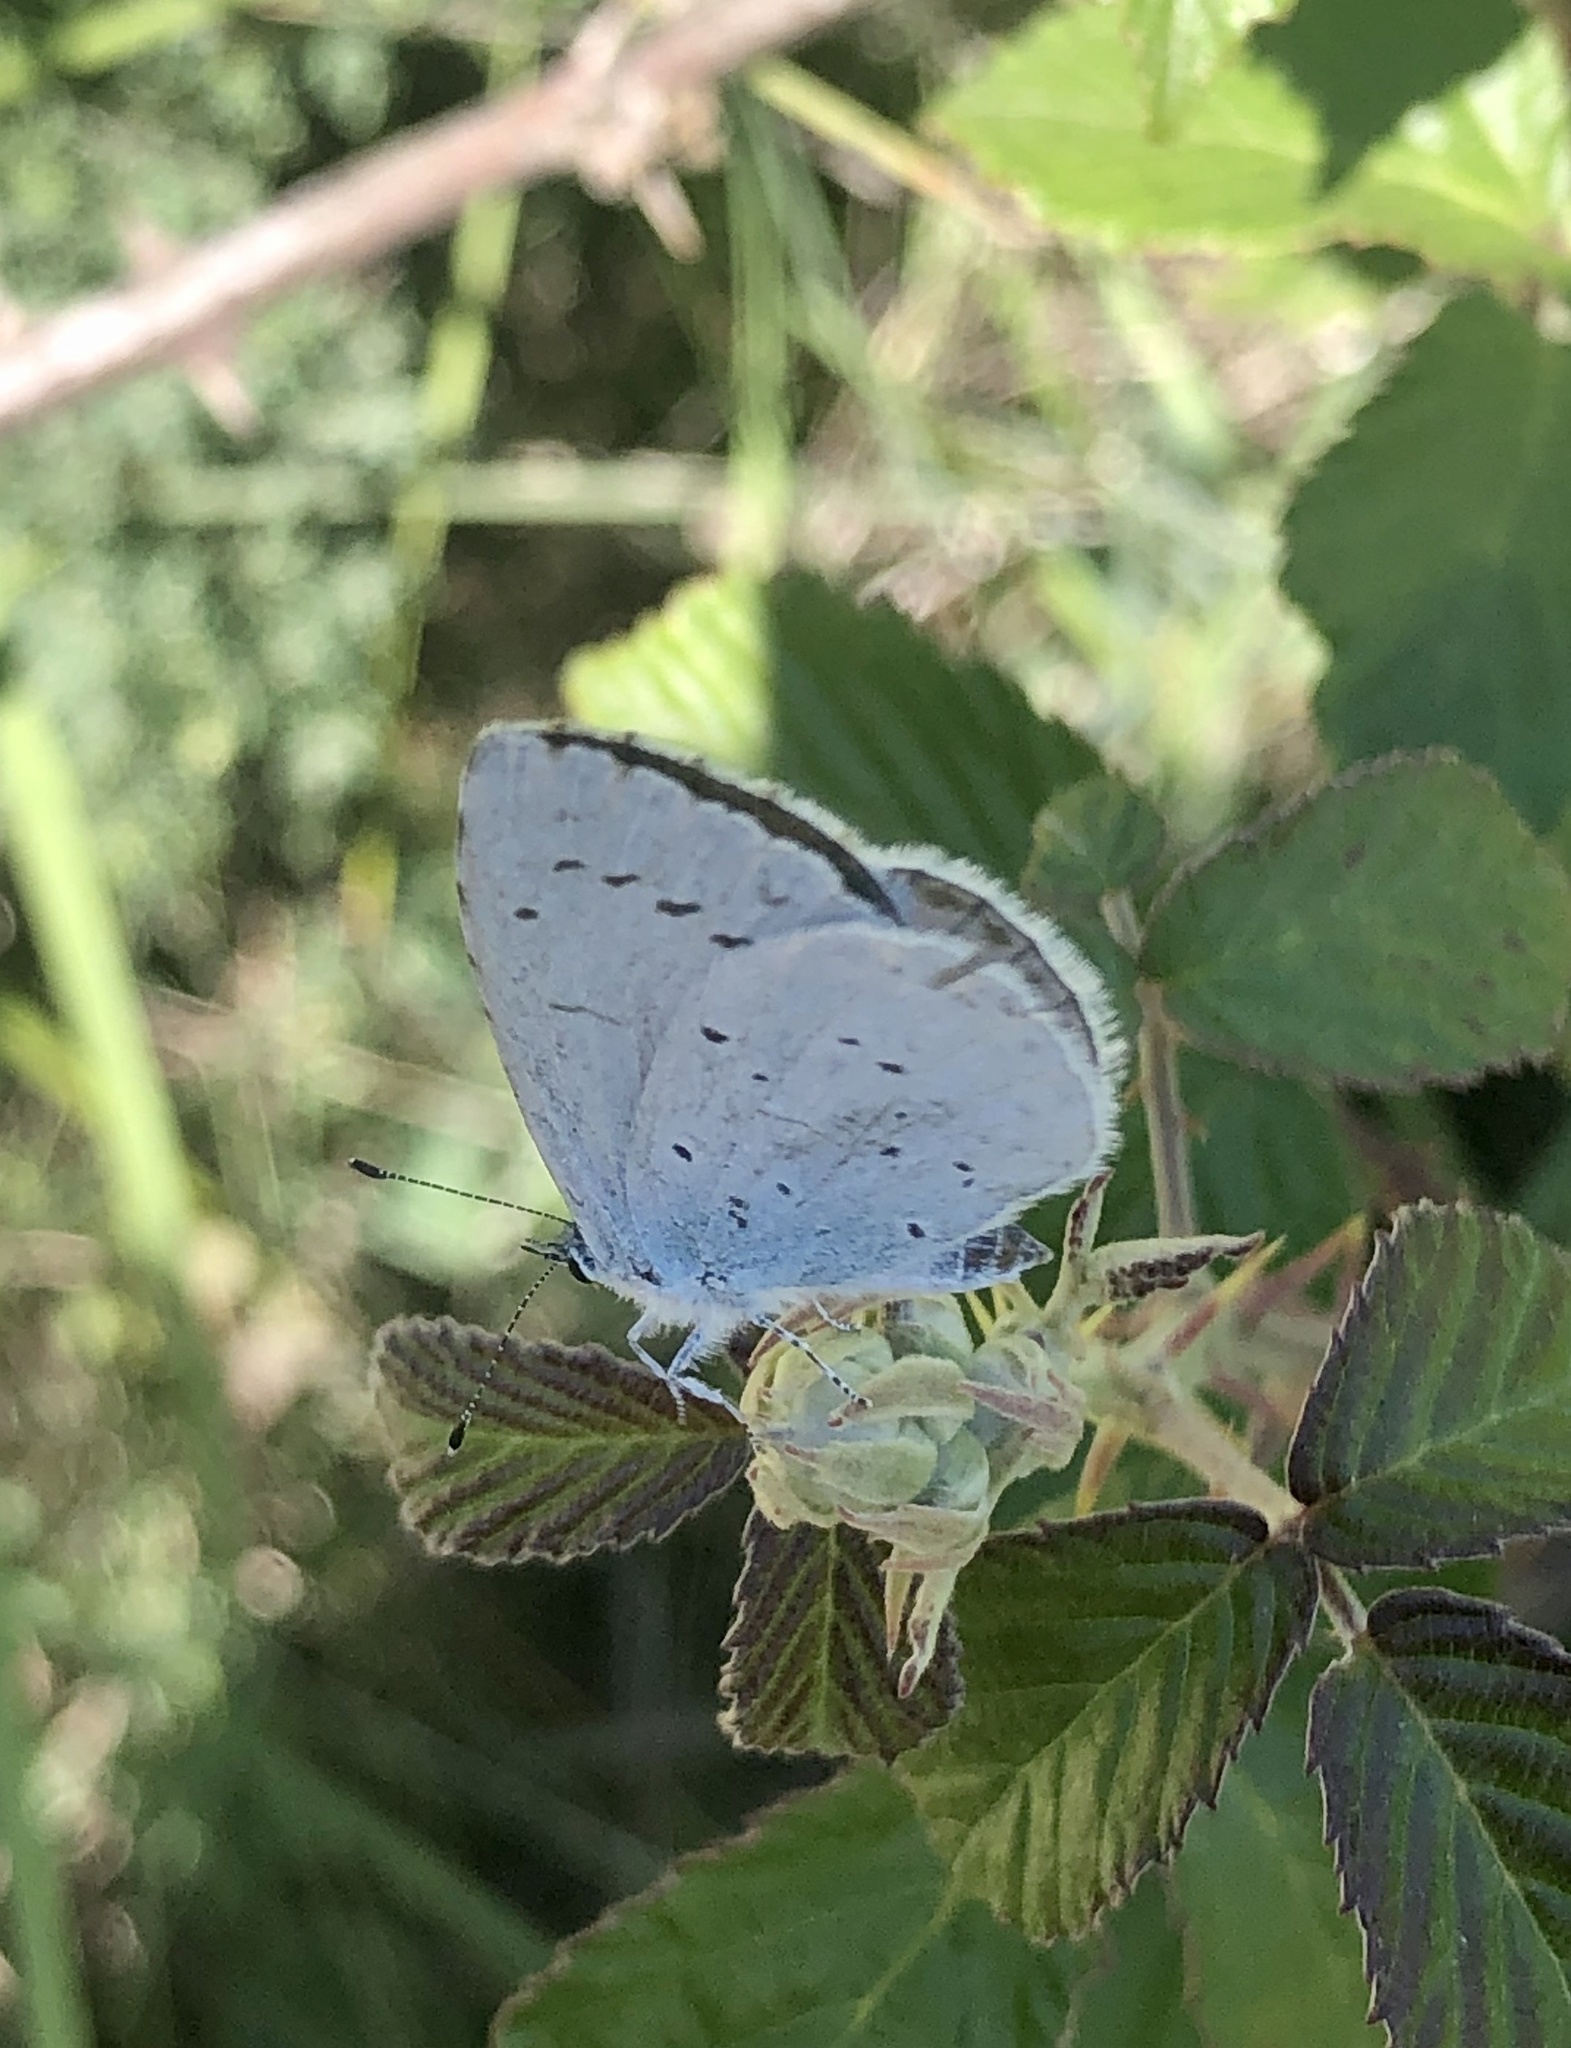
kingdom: Animalia
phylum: Arthropoda
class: Insecta
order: Lepidoptera
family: Lycaenidae
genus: Celastrina
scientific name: Celastrina argiolus
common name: Holly blue
